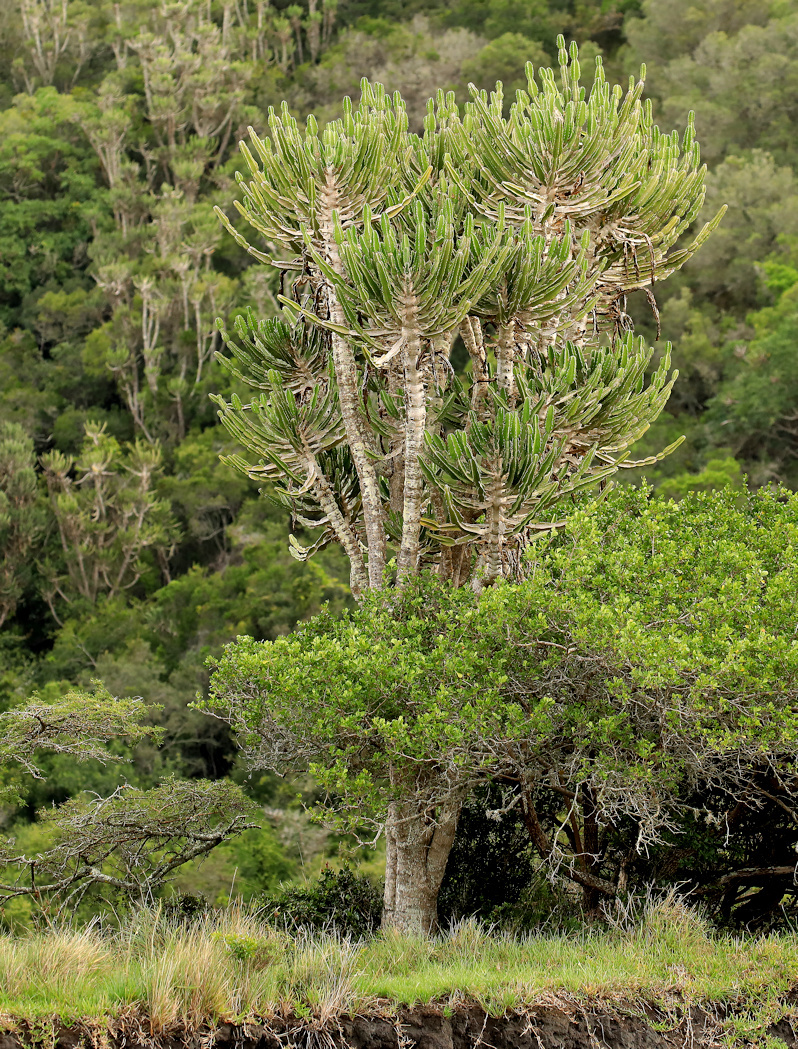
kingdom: Plantae
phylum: Tracheophyta
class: Magnoliopsida
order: Malpighiales
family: Euphorbiaceae
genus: Euphorbia
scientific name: Euphorbia triangularis
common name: Chandelier tree
